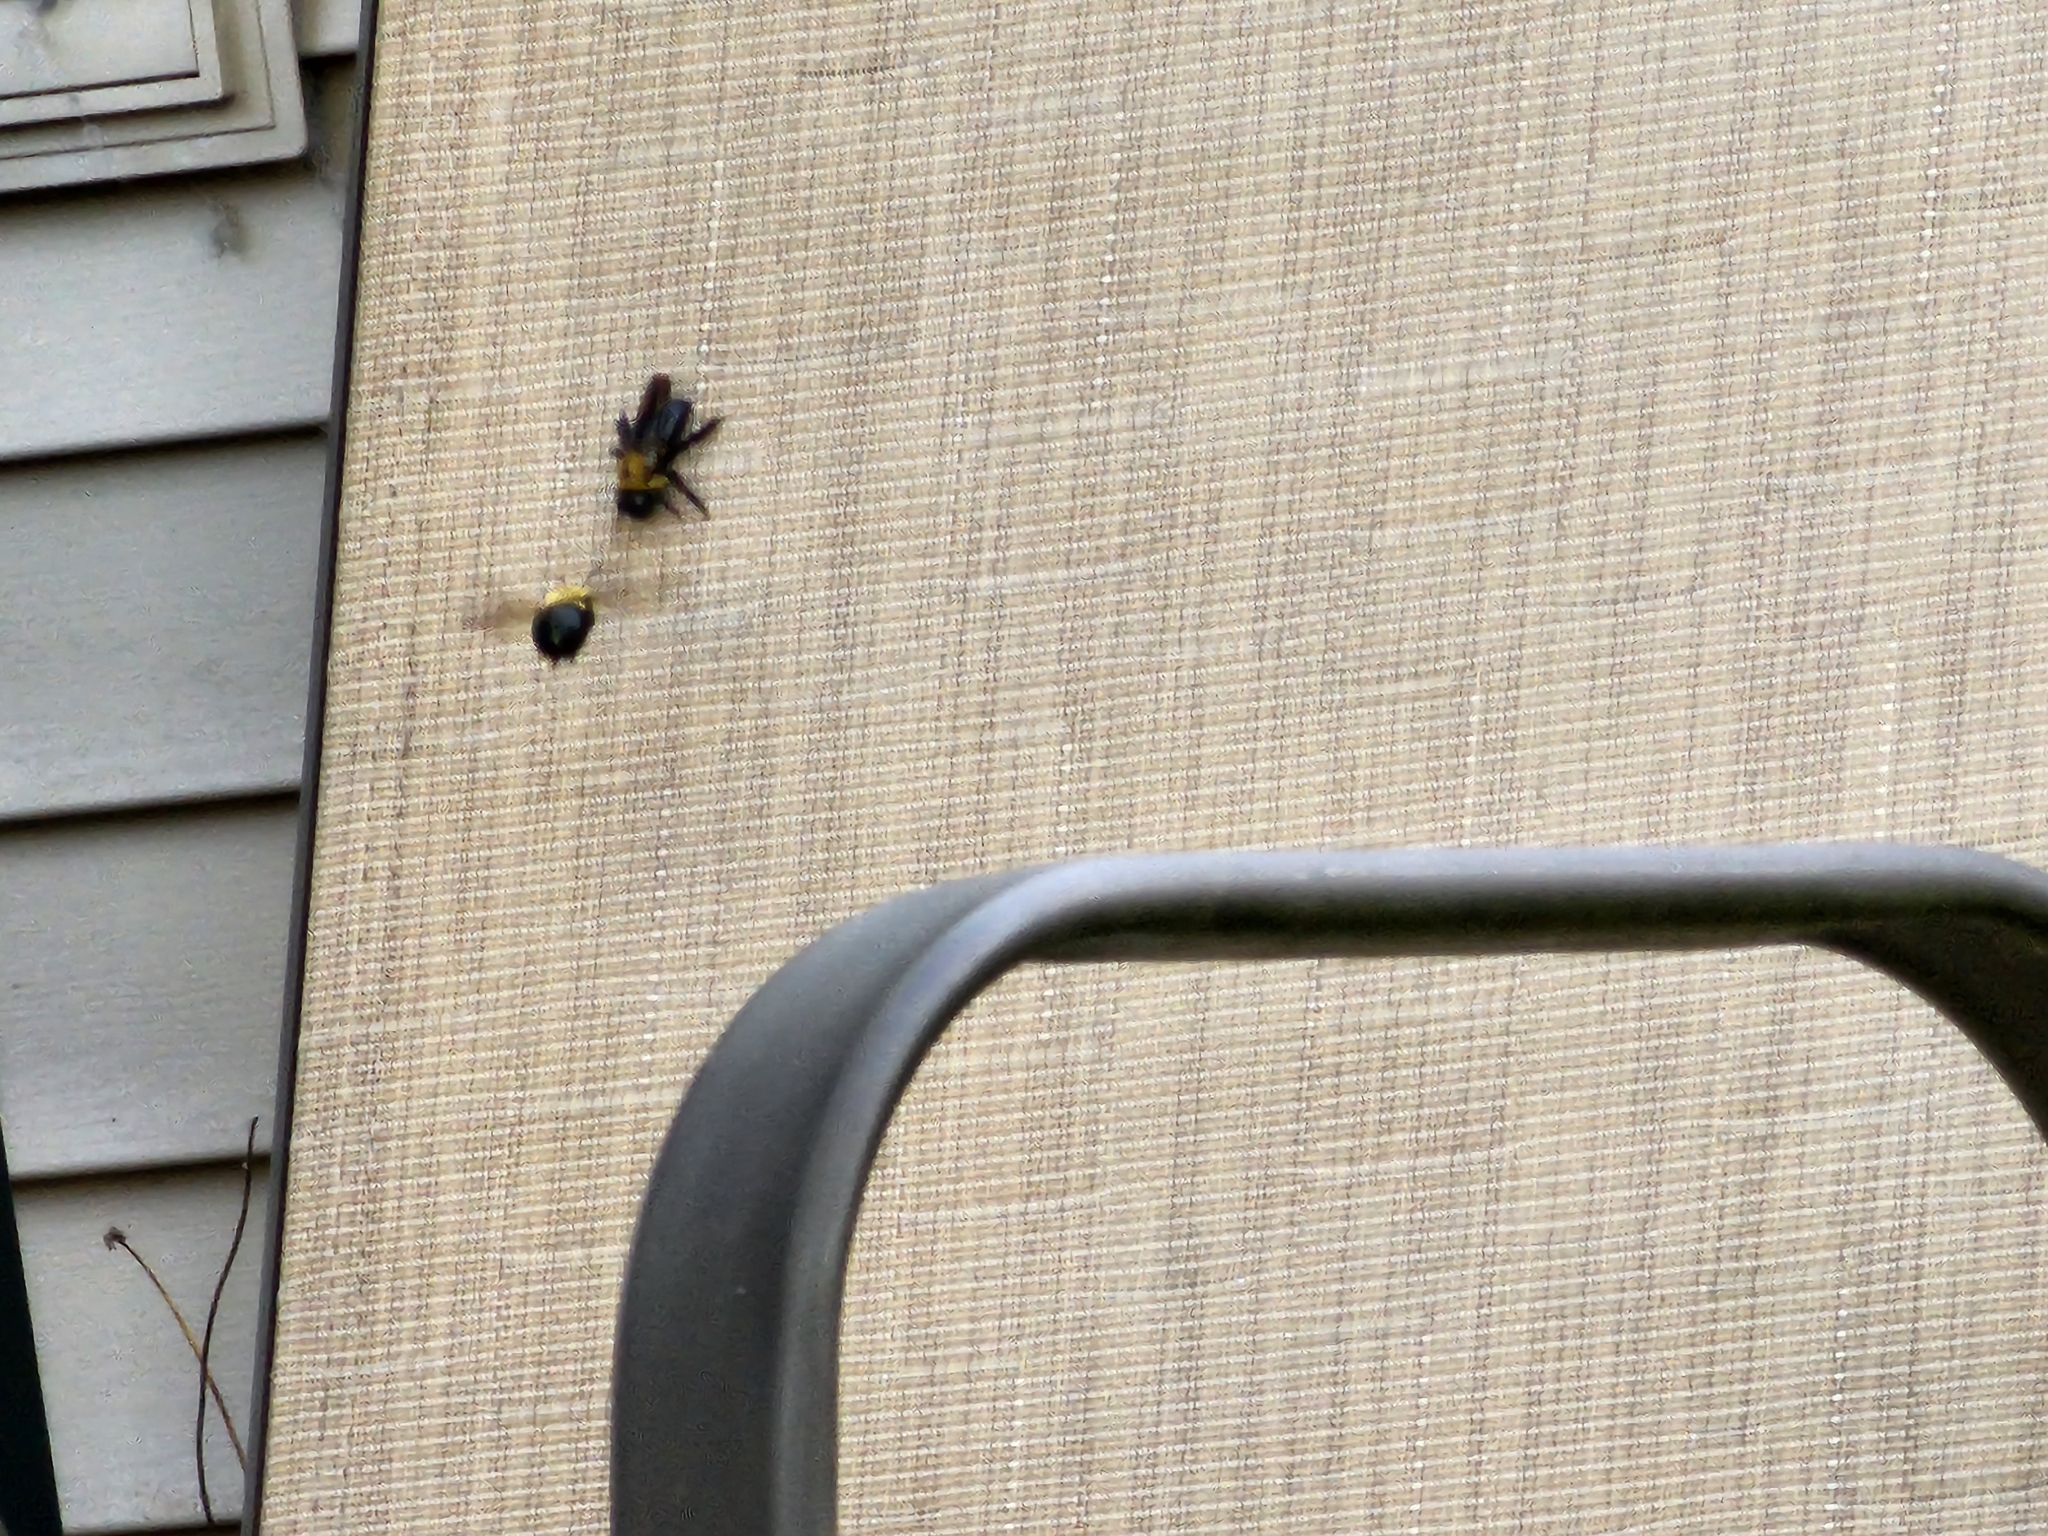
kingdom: Animalia
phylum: Arthropoda
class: Insecta
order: Hymenoptera
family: Apidae
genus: Xylocopa
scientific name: Xylocopa virginica
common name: Carpenter bee
